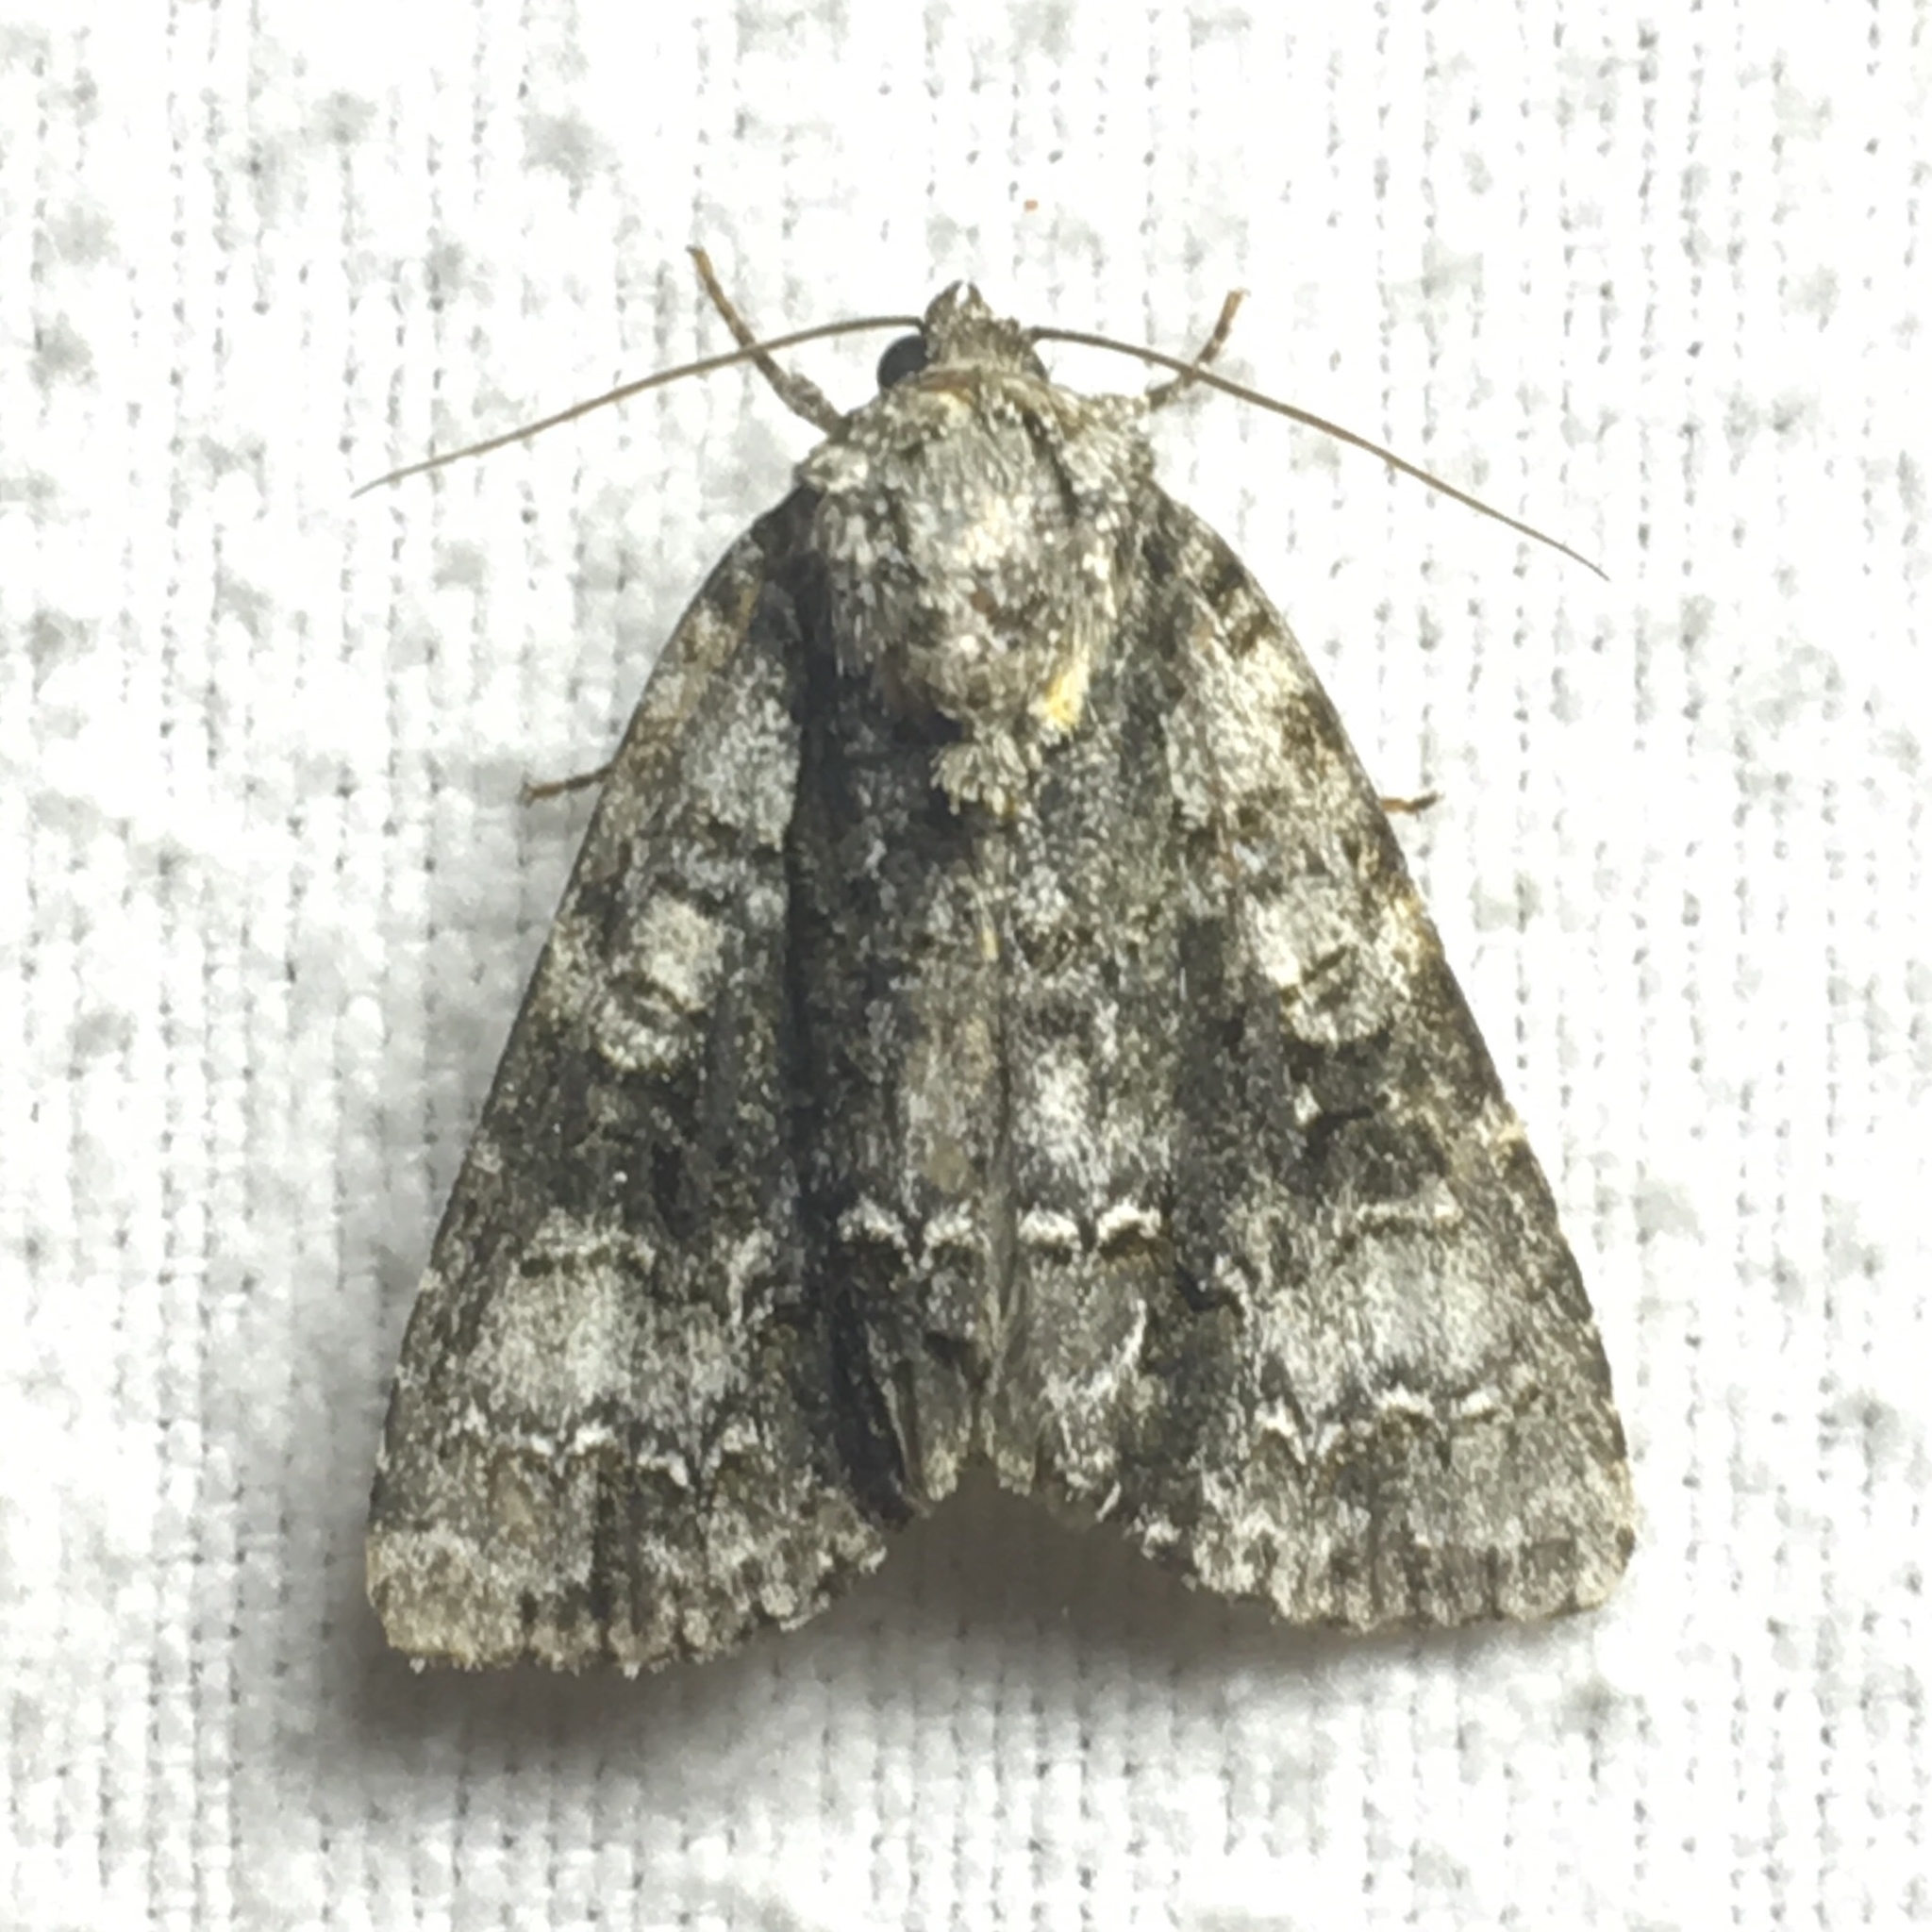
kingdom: Animalia
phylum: Arthropoda
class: Insecta
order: Lepidoptera
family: Noctuidae
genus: Acronicta
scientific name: Acronicta superans
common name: Splendid dagger
